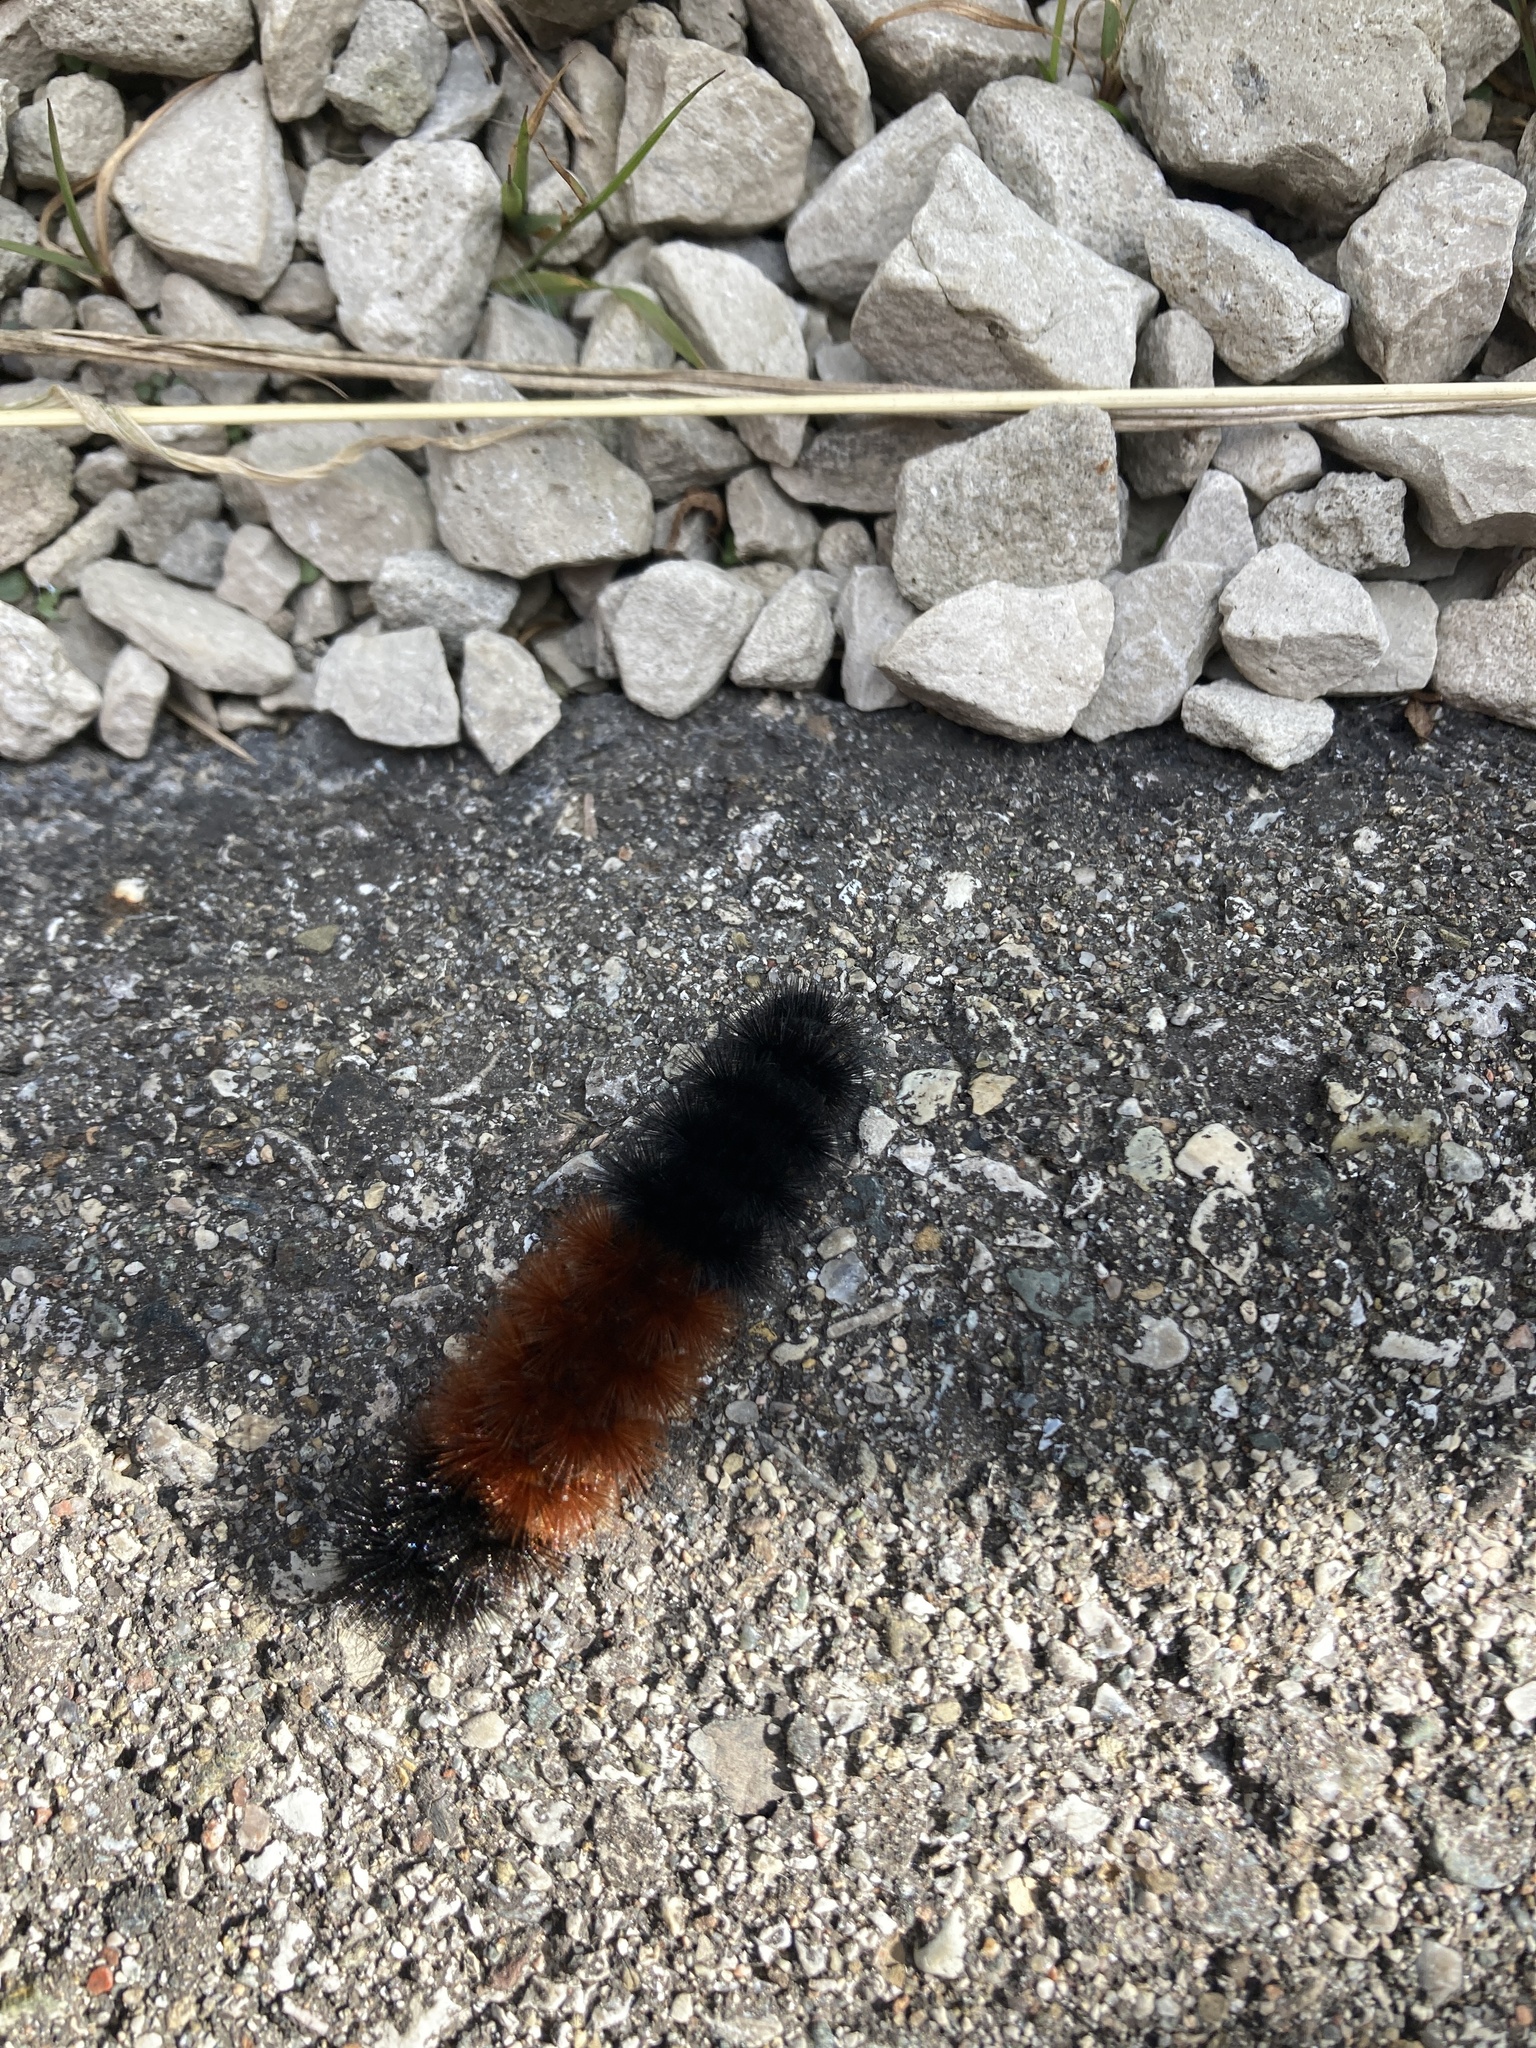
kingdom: Animalia
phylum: Arthropoda
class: Insecta
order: Lepidoptera
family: Erebidae
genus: Pyrrharctia
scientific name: Pyrrharctia isabella
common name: Isabella tiger moth
